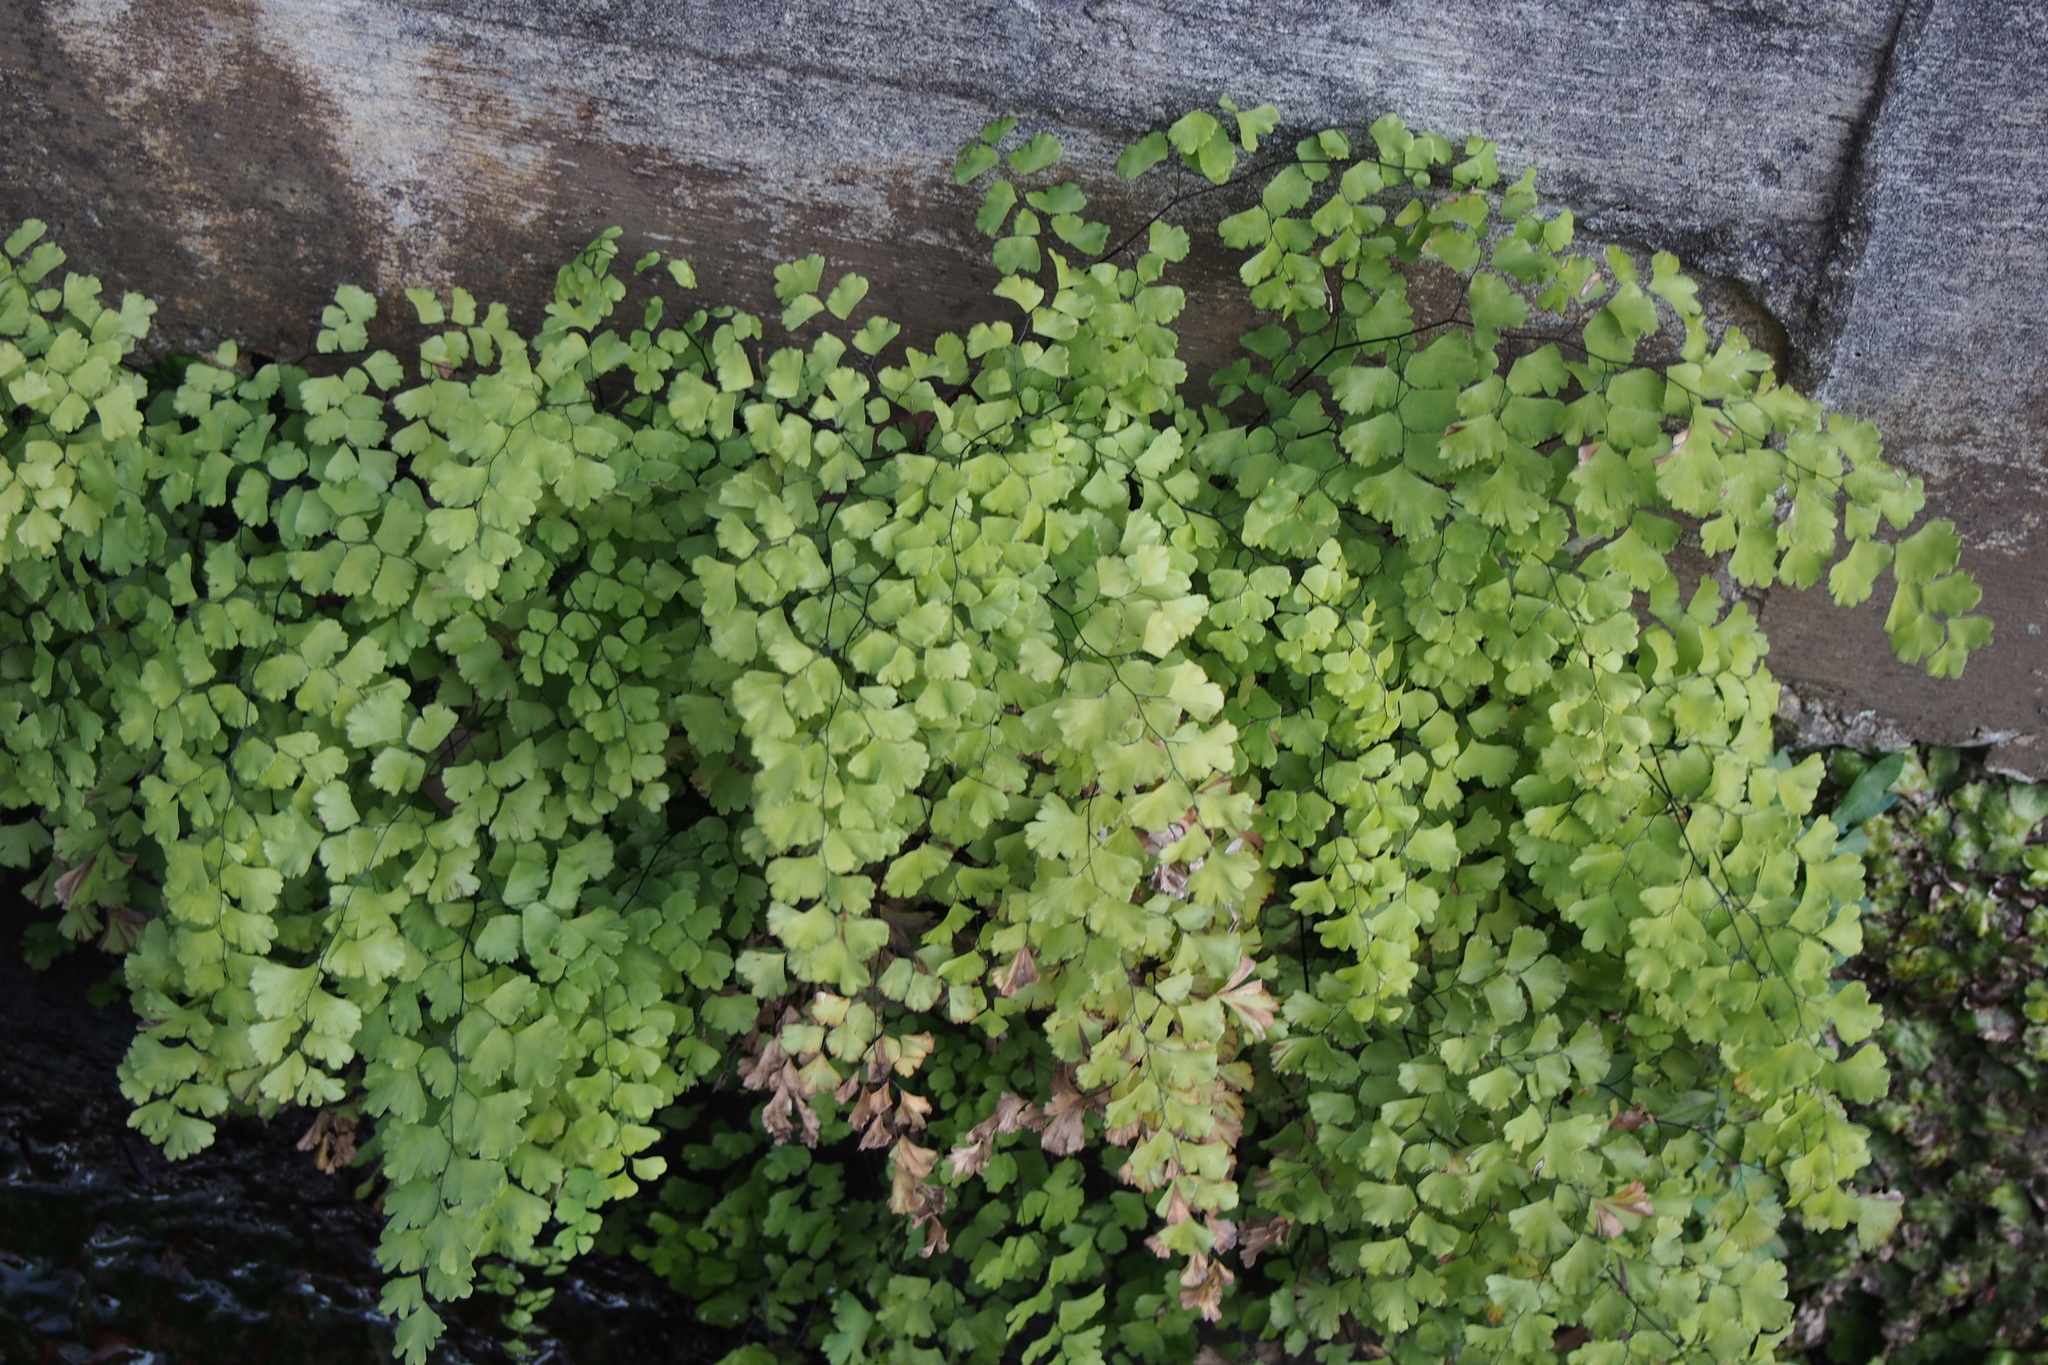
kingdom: Plantae
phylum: Tracheophyta
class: Polypodiopsida
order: Polypodiales
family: Pteridaceae
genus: Adiantum
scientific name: Adiantum capillus-veneris
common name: Maidenhair fern
